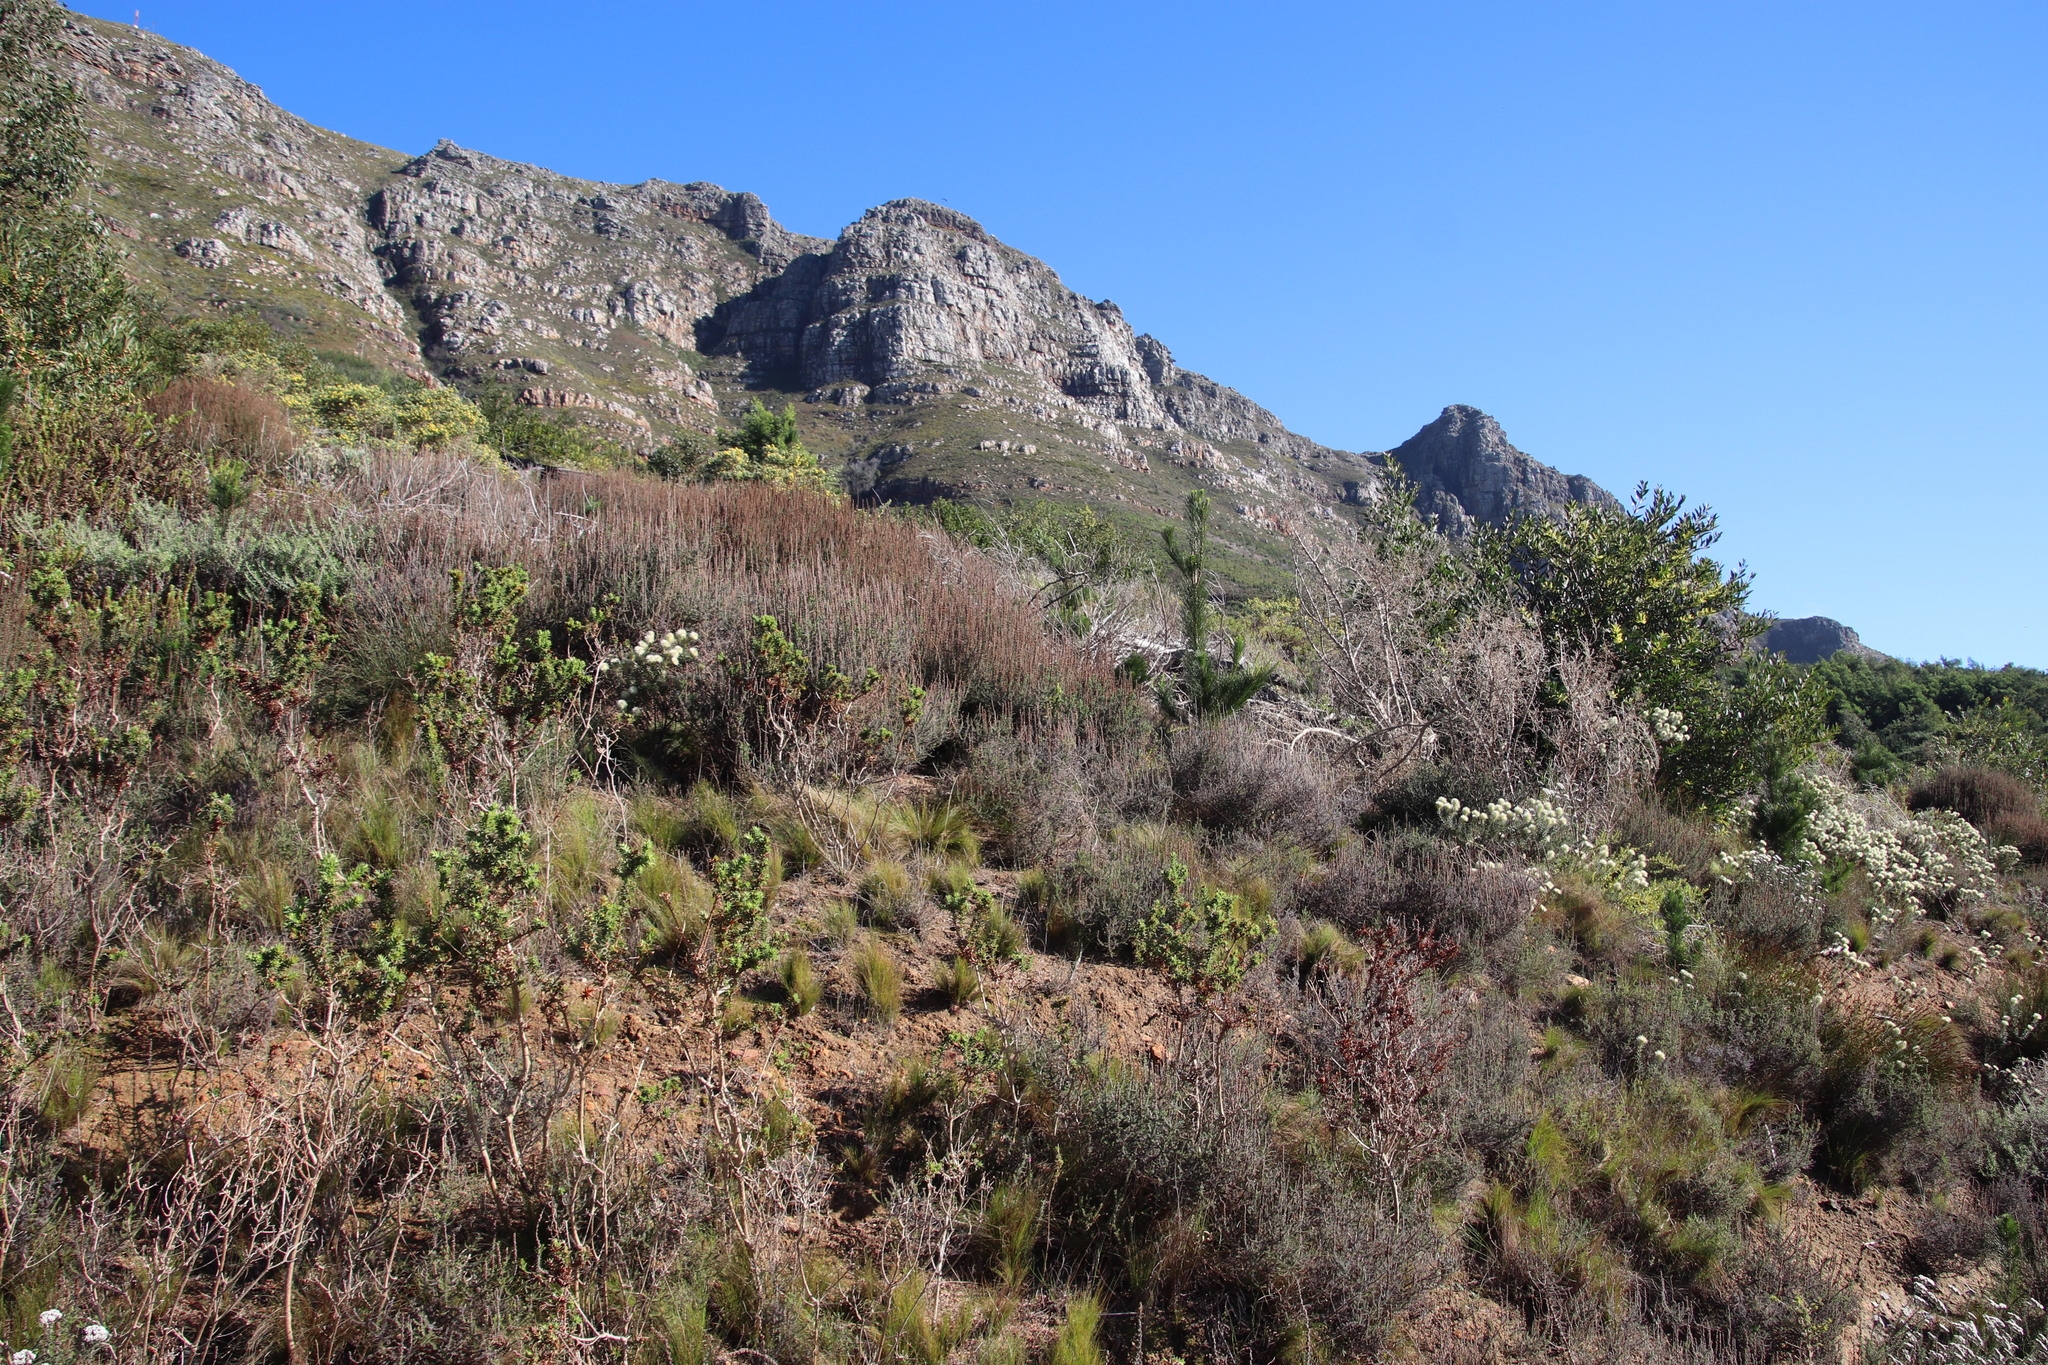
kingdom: Plantae
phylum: Tracheophyta
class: Magnoliopsida
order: Asterales
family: Asteraceae
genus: Seriphium
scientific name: Seriphium cinereum
